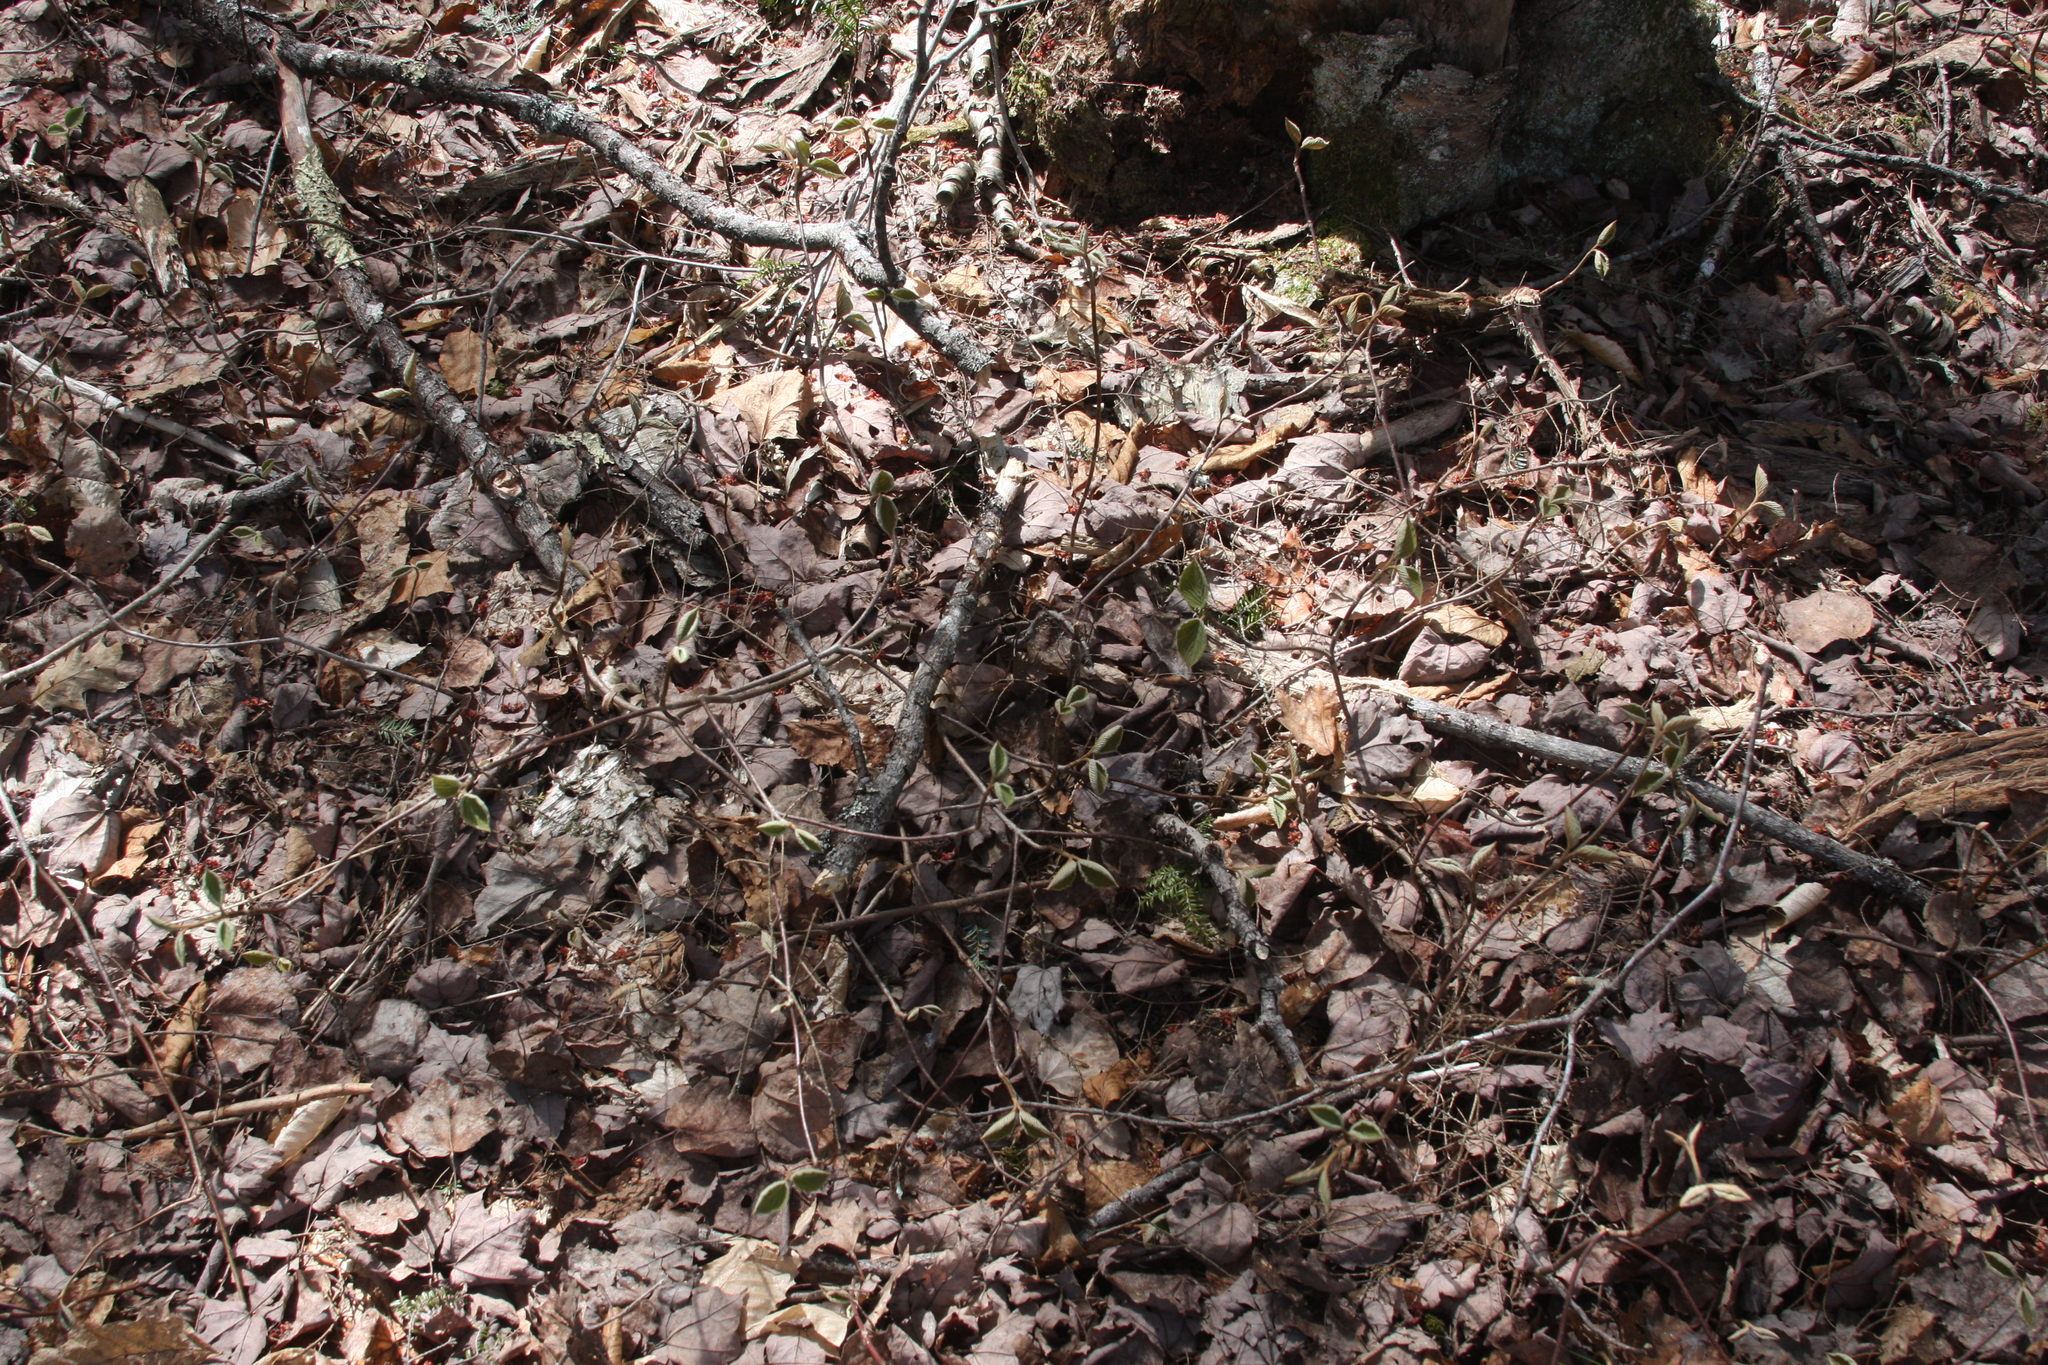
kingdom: Plantae
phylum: Tracheophyta
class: Magnoliopsida
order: Dipsacales
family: Viburnaceae
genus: Viburnum
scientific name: Viburnum lantanoides
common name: Hobblebush
